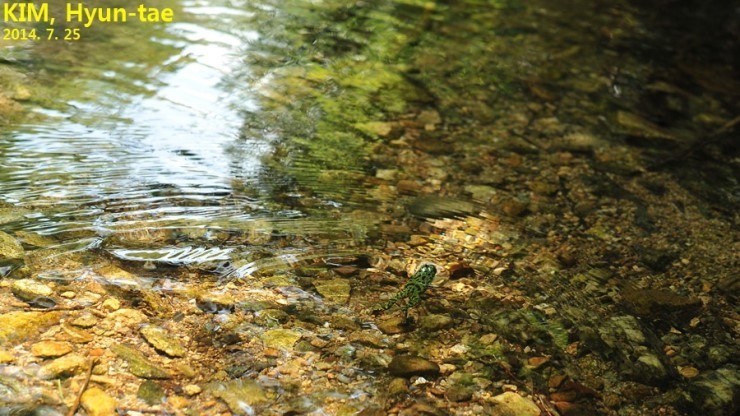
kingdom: Animalia
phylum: Chordata
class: Amphibia
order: Anura
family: Bombinatoridae
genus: Bombina
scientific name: Bombina orientalis
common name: Oriental firebelly toad
